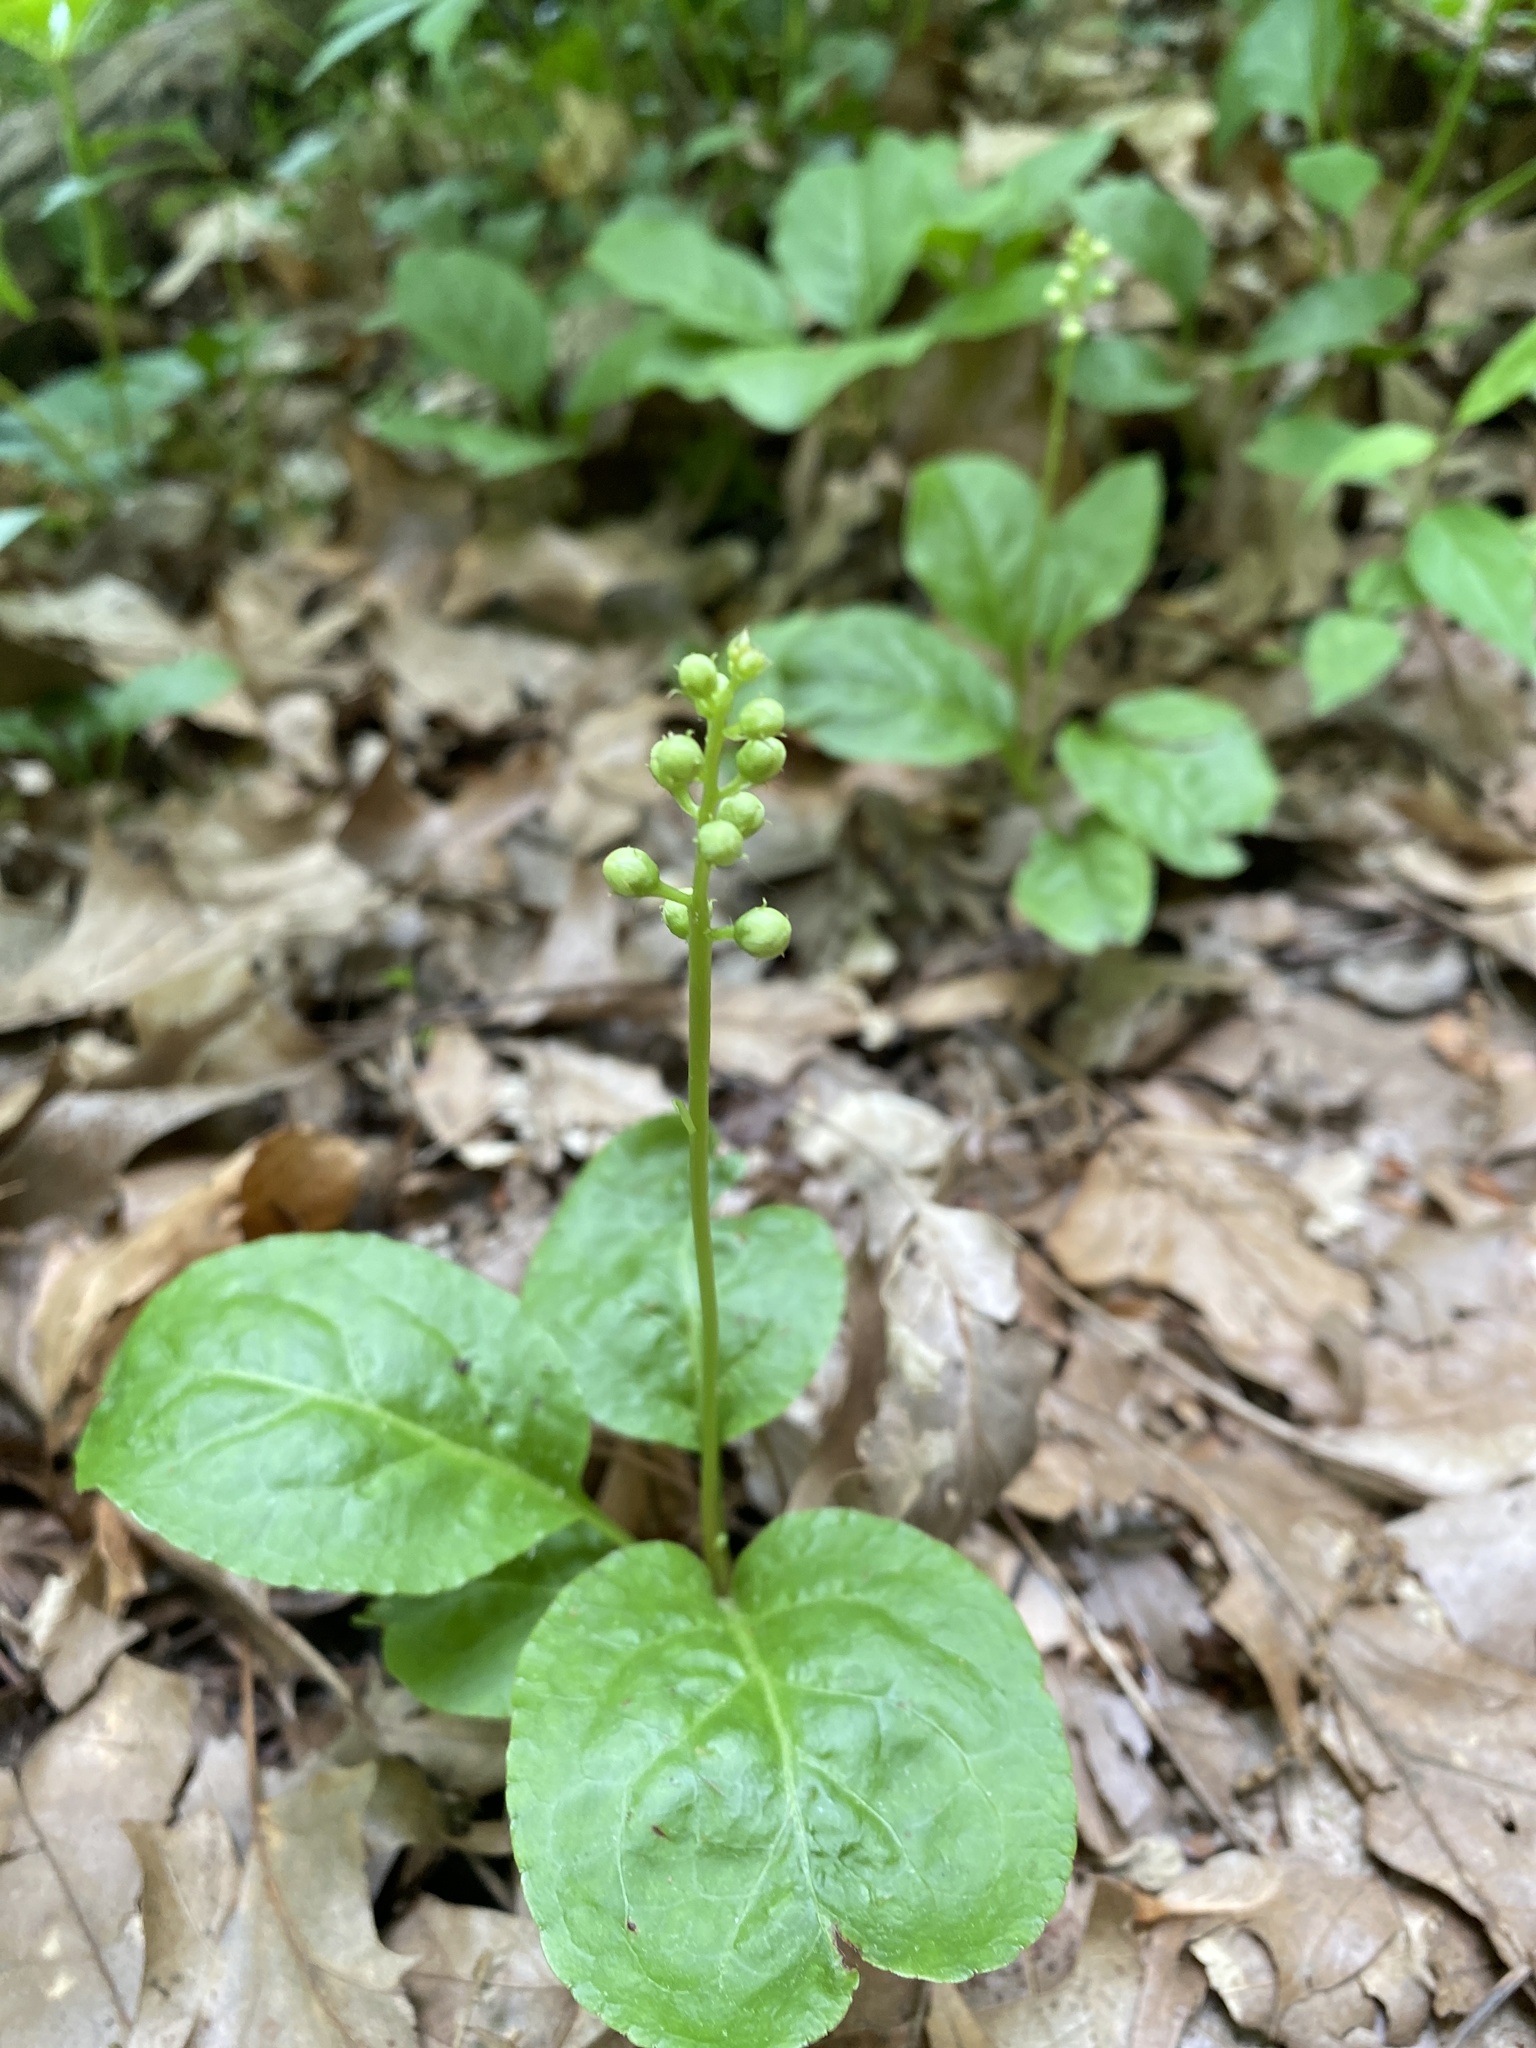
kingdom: Plantae
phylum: Tracheophyta
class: Magnoliopsida
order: Ericales
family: Ericaceae
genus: Pyrola
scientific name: Pyrola elliptica
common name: Shinleaf
